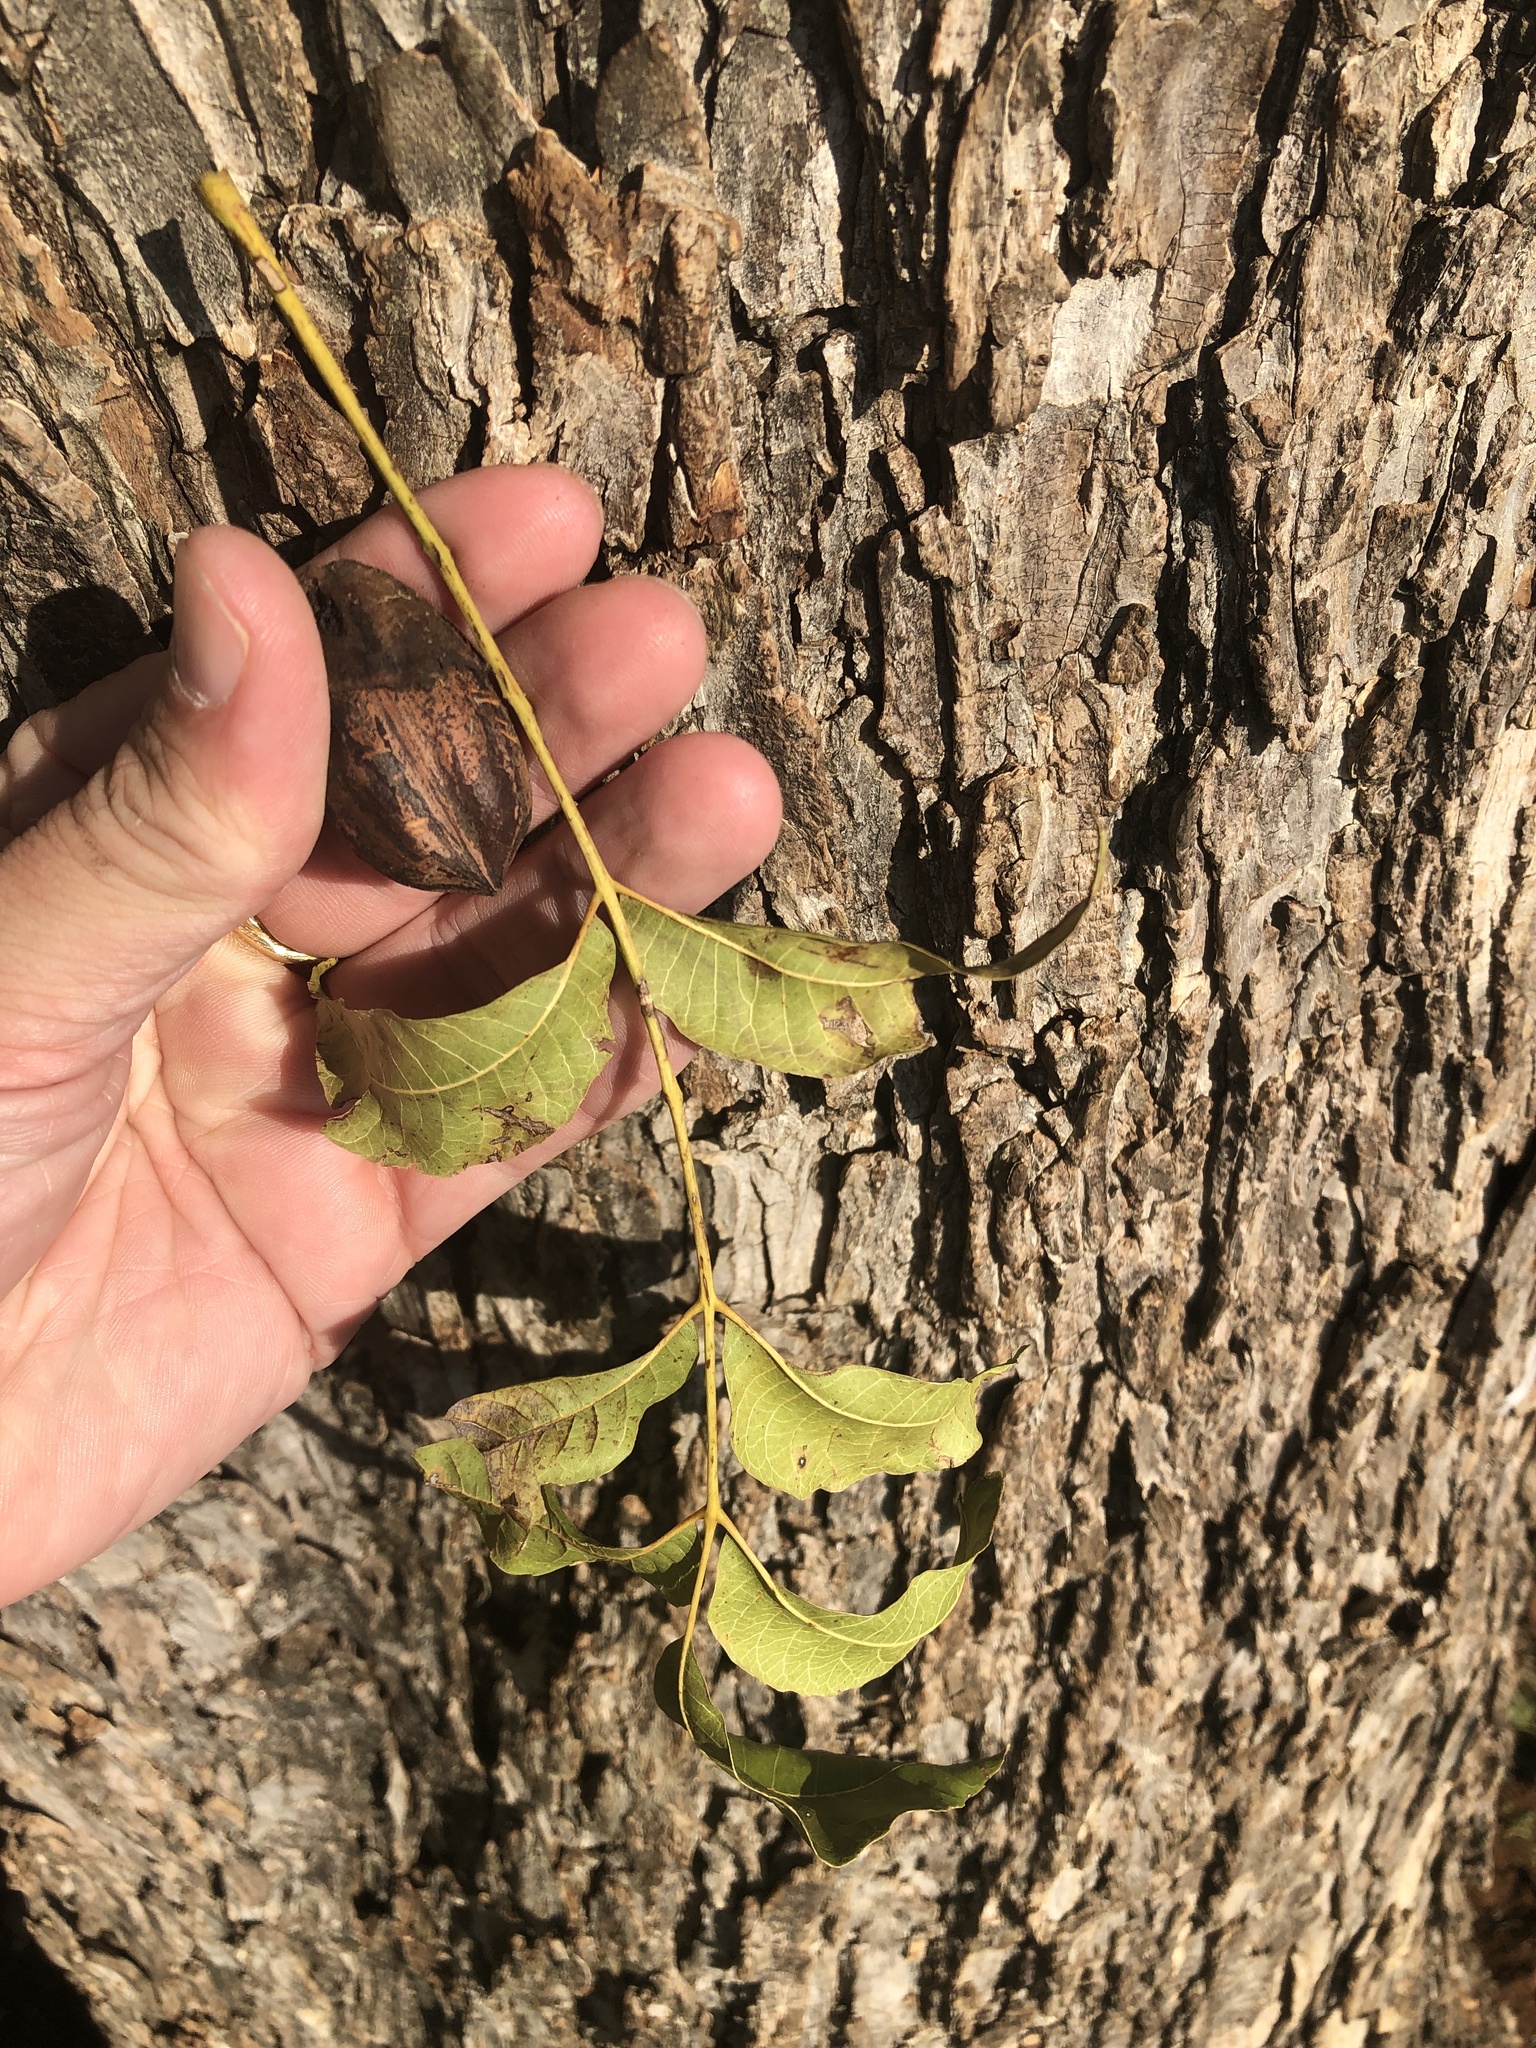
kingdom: Plantae
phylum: Tracheophyta
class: Magnoliopsida
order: Fagales
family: Juglandaceae
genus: Carya
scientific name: Carya illinoinensis
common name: Pecan
